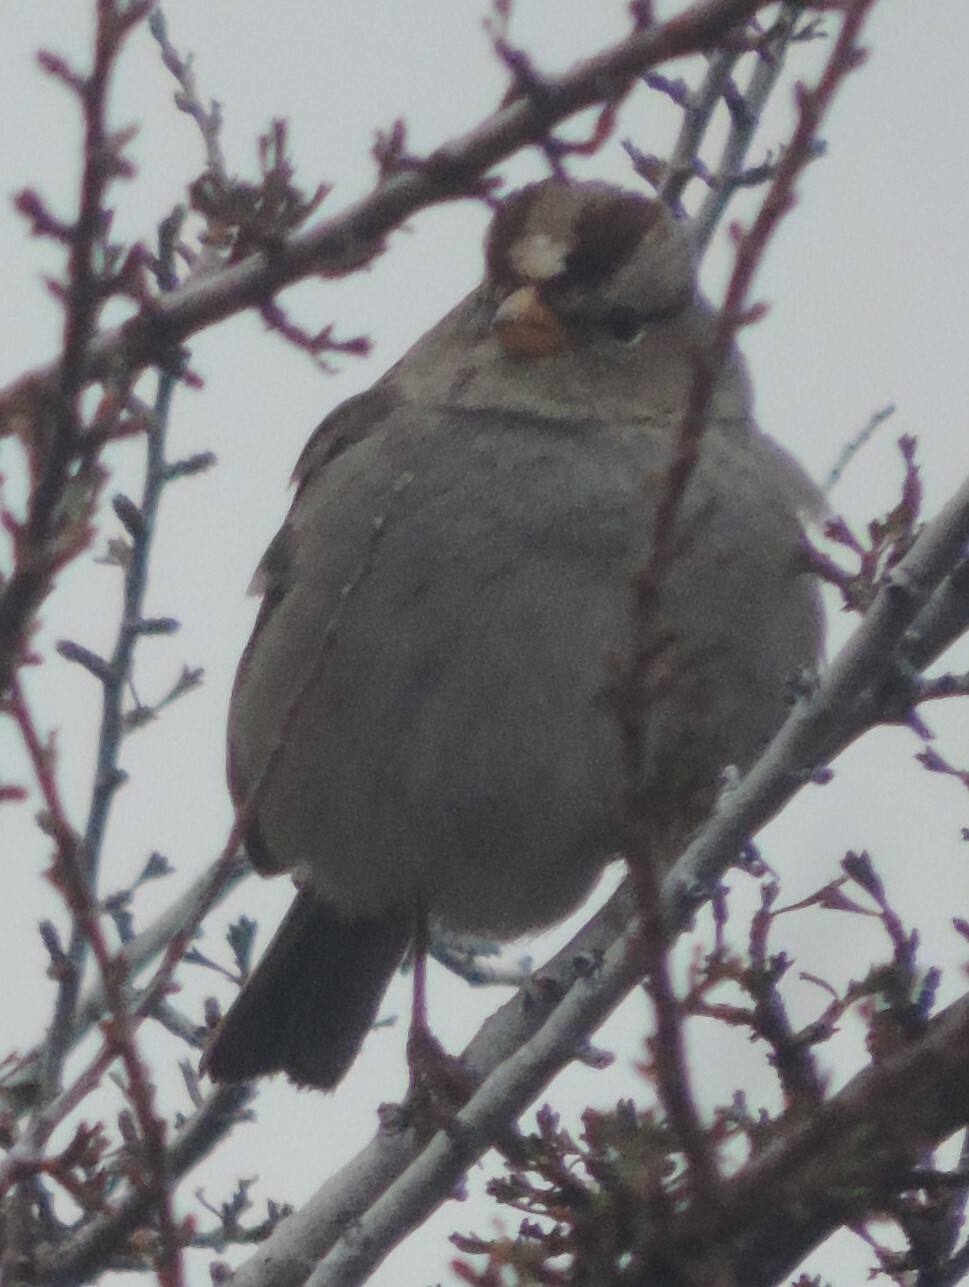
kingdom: Animalia
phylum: Chordata
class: Aves
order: Passeriformes
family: Passerellidae
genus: Zonotrichia
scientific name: Zonotrichia leucophrys
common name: White-crowned sparrow
